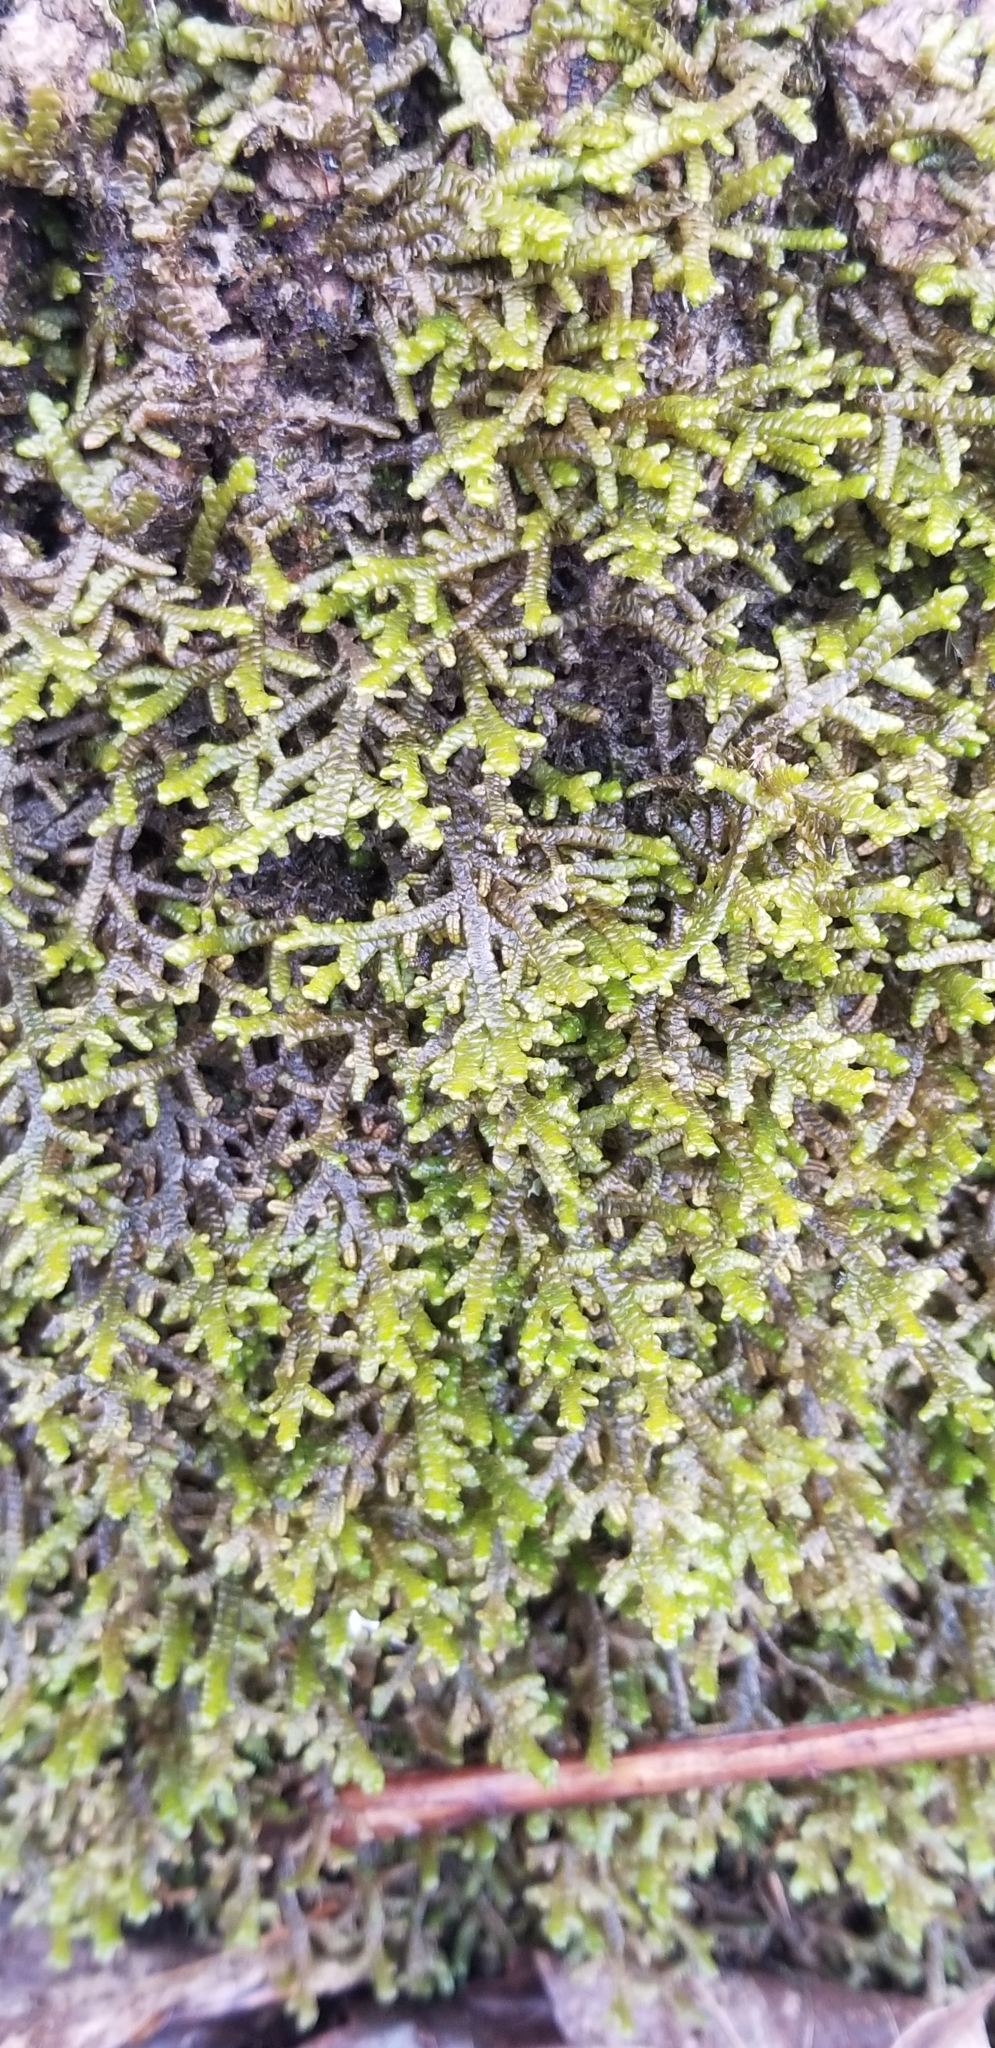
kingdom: Plantae
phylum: Marchantiophyta
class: Jungermanniopsida
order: Porellales
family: Porellaceae
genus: Porella
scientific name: Porella platyphylla
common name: Wall scalewort
